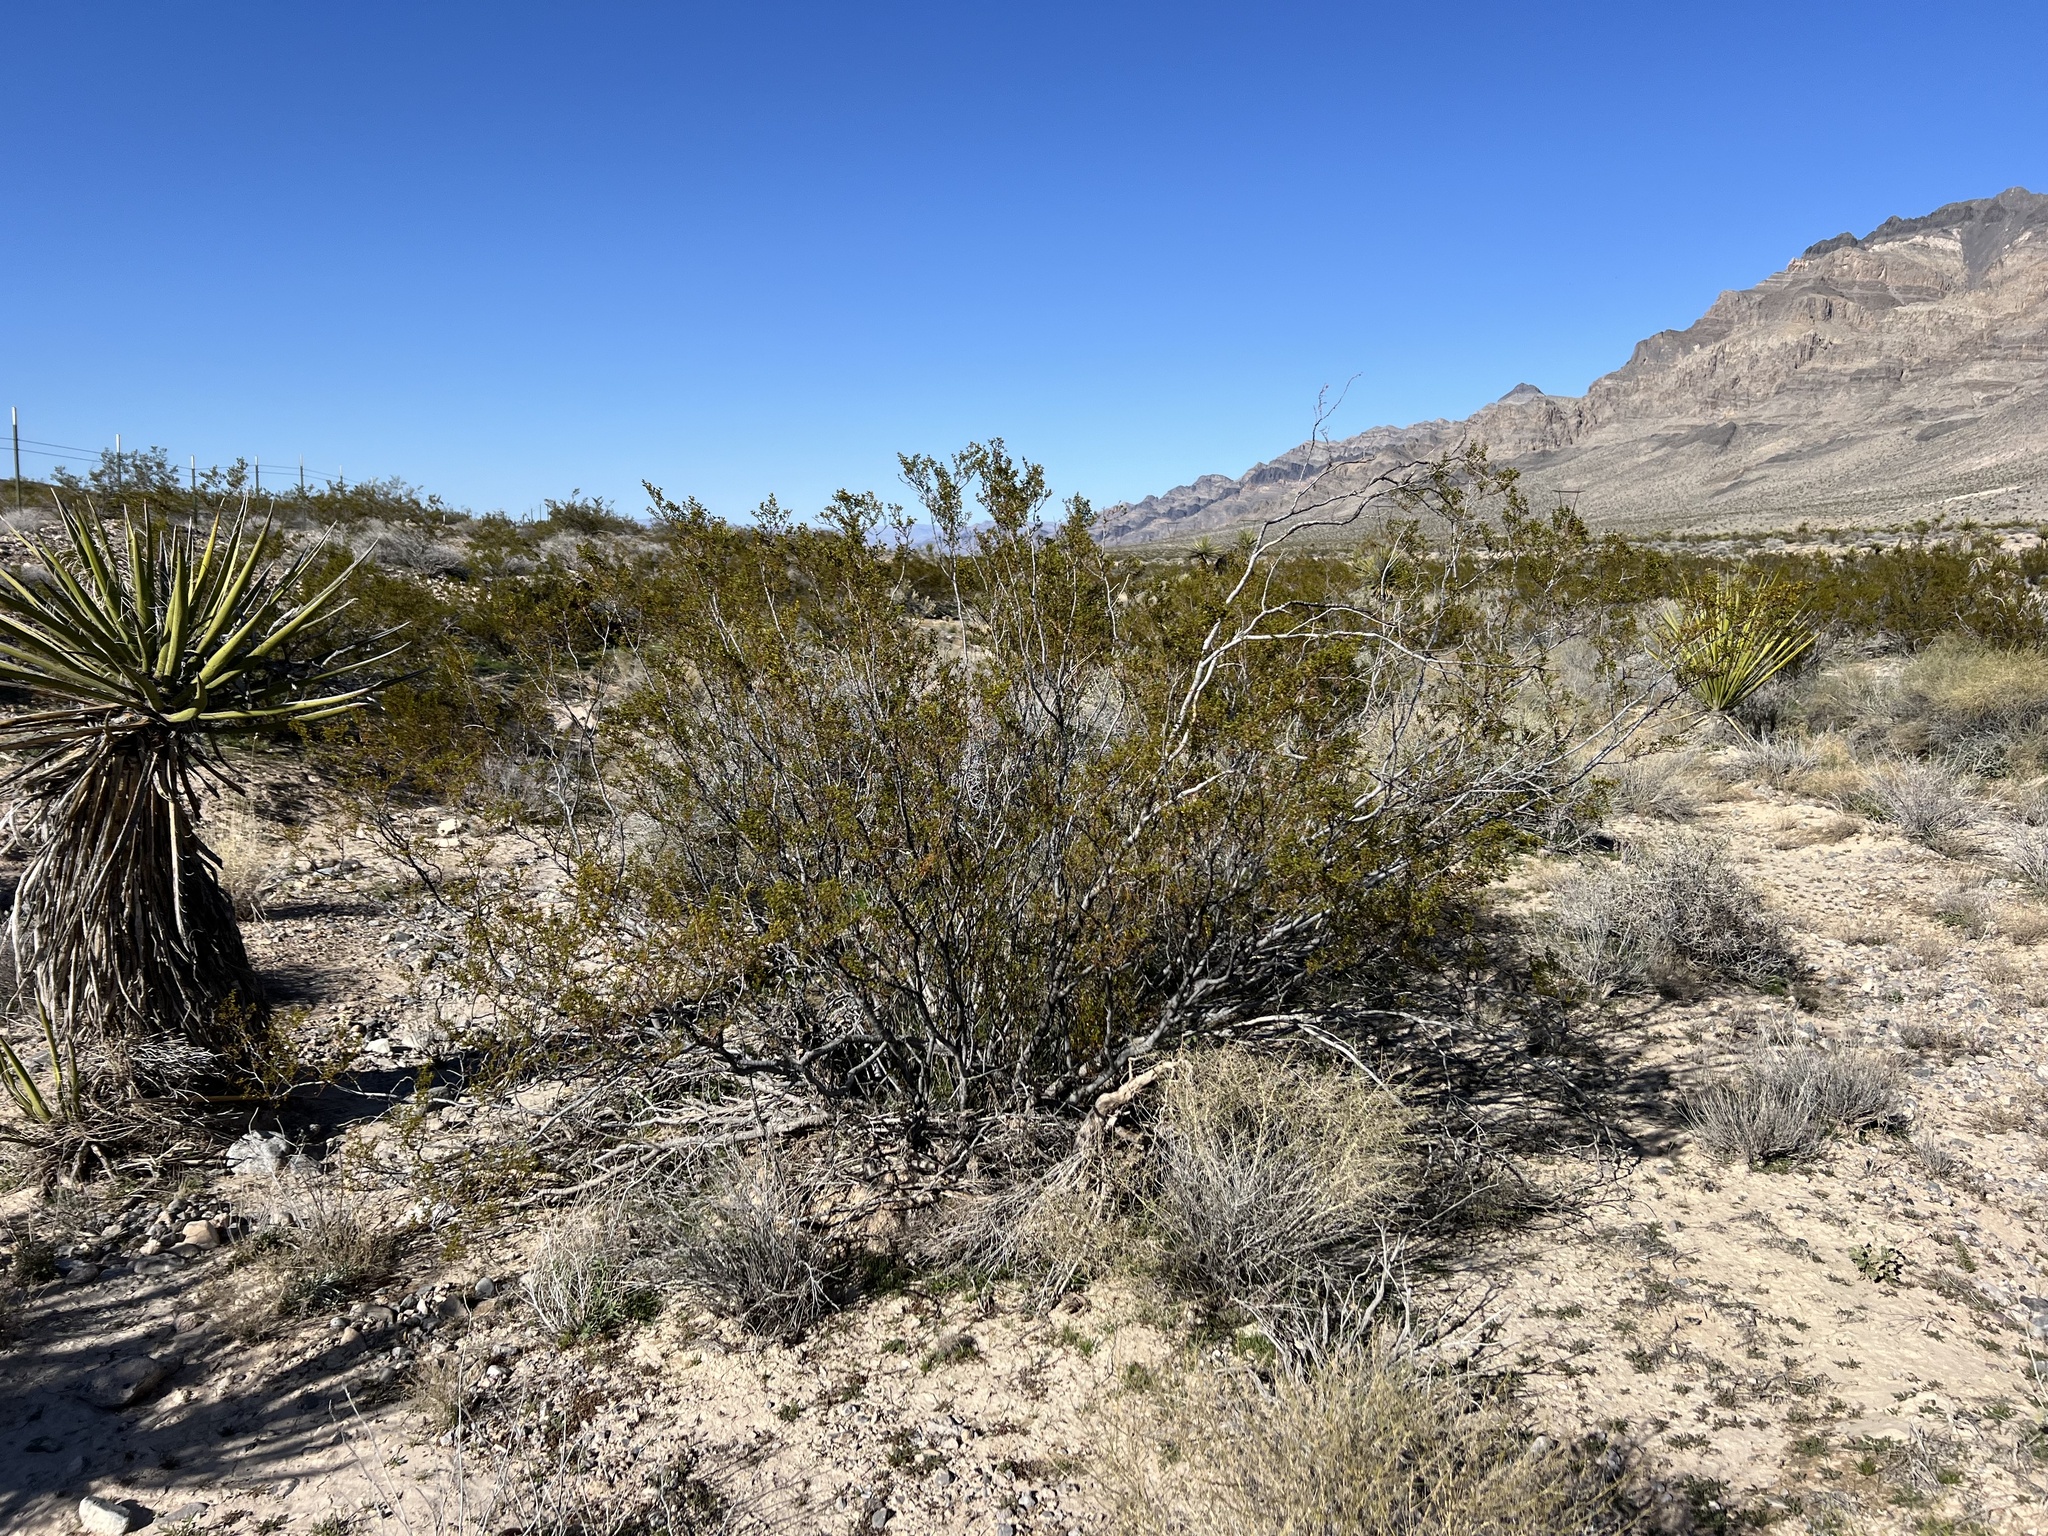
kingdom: Plantae
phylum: Tracheophyta
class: Magnoliopsida
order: Zygophyllales
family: Zygophyllaceae
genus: Larrea
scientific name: Larrea tridentata
